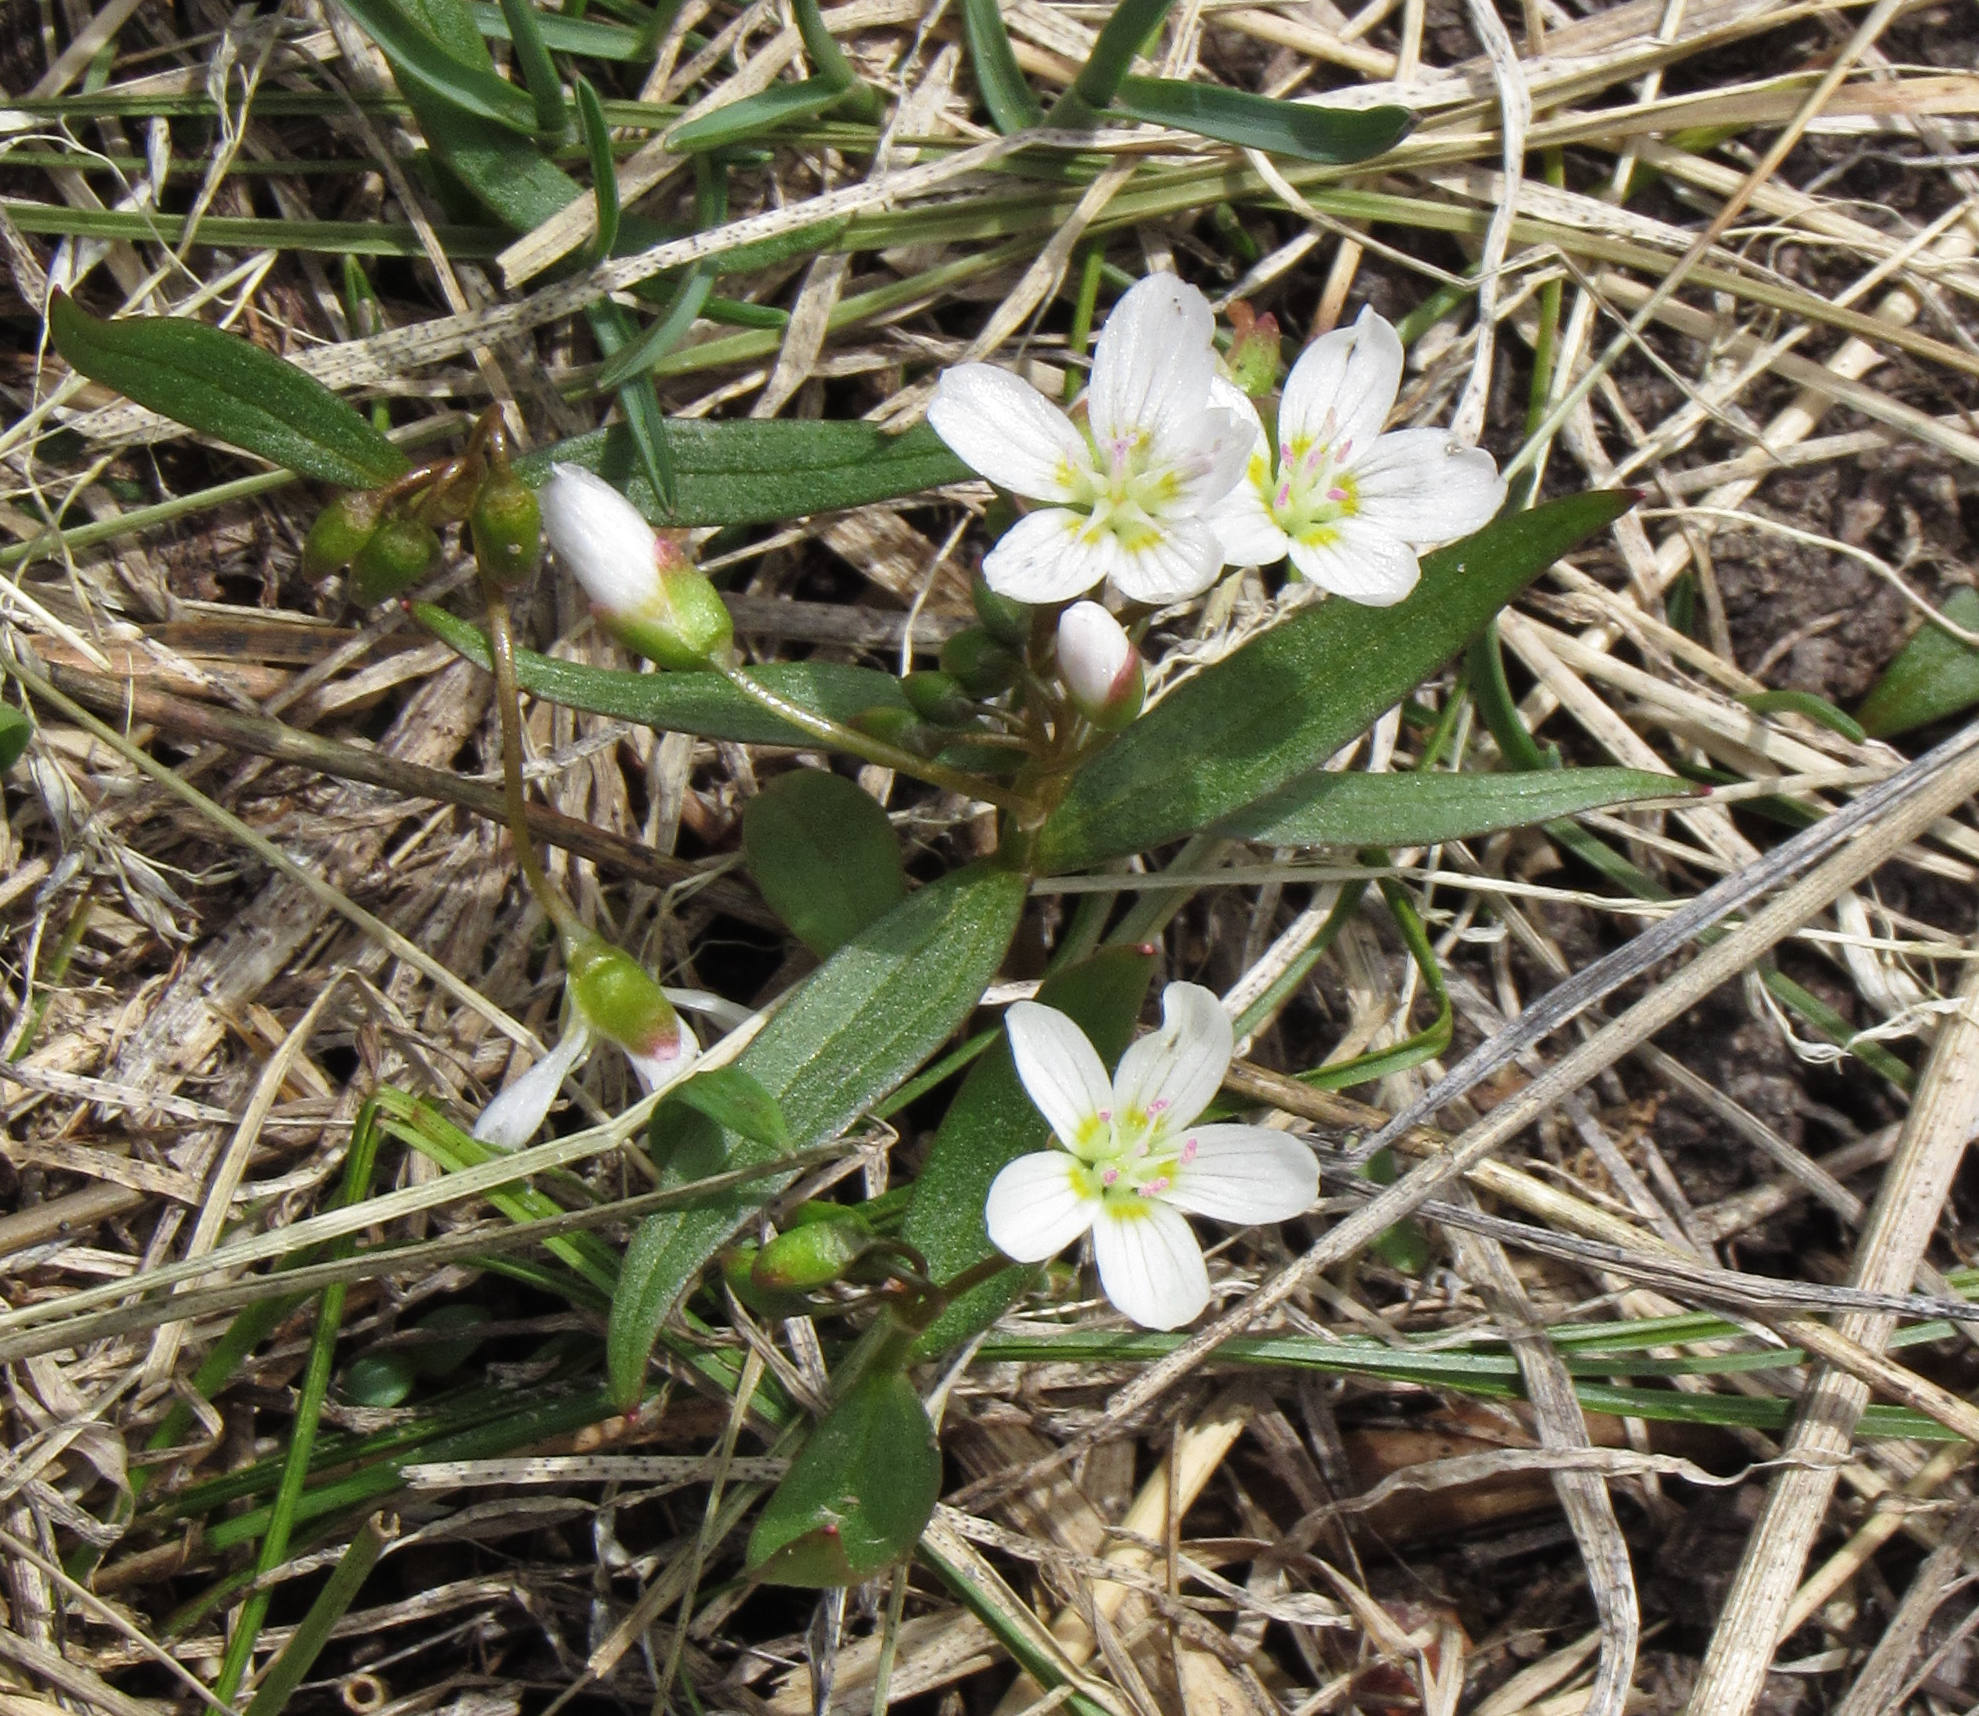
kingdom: Plantae
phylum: Tracheophyta
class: Magnoliopsida
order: Caryophyllales
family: Montiaceae
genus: Claytonia
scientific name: Claytonia lanceolata
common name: Western spring-beauty
